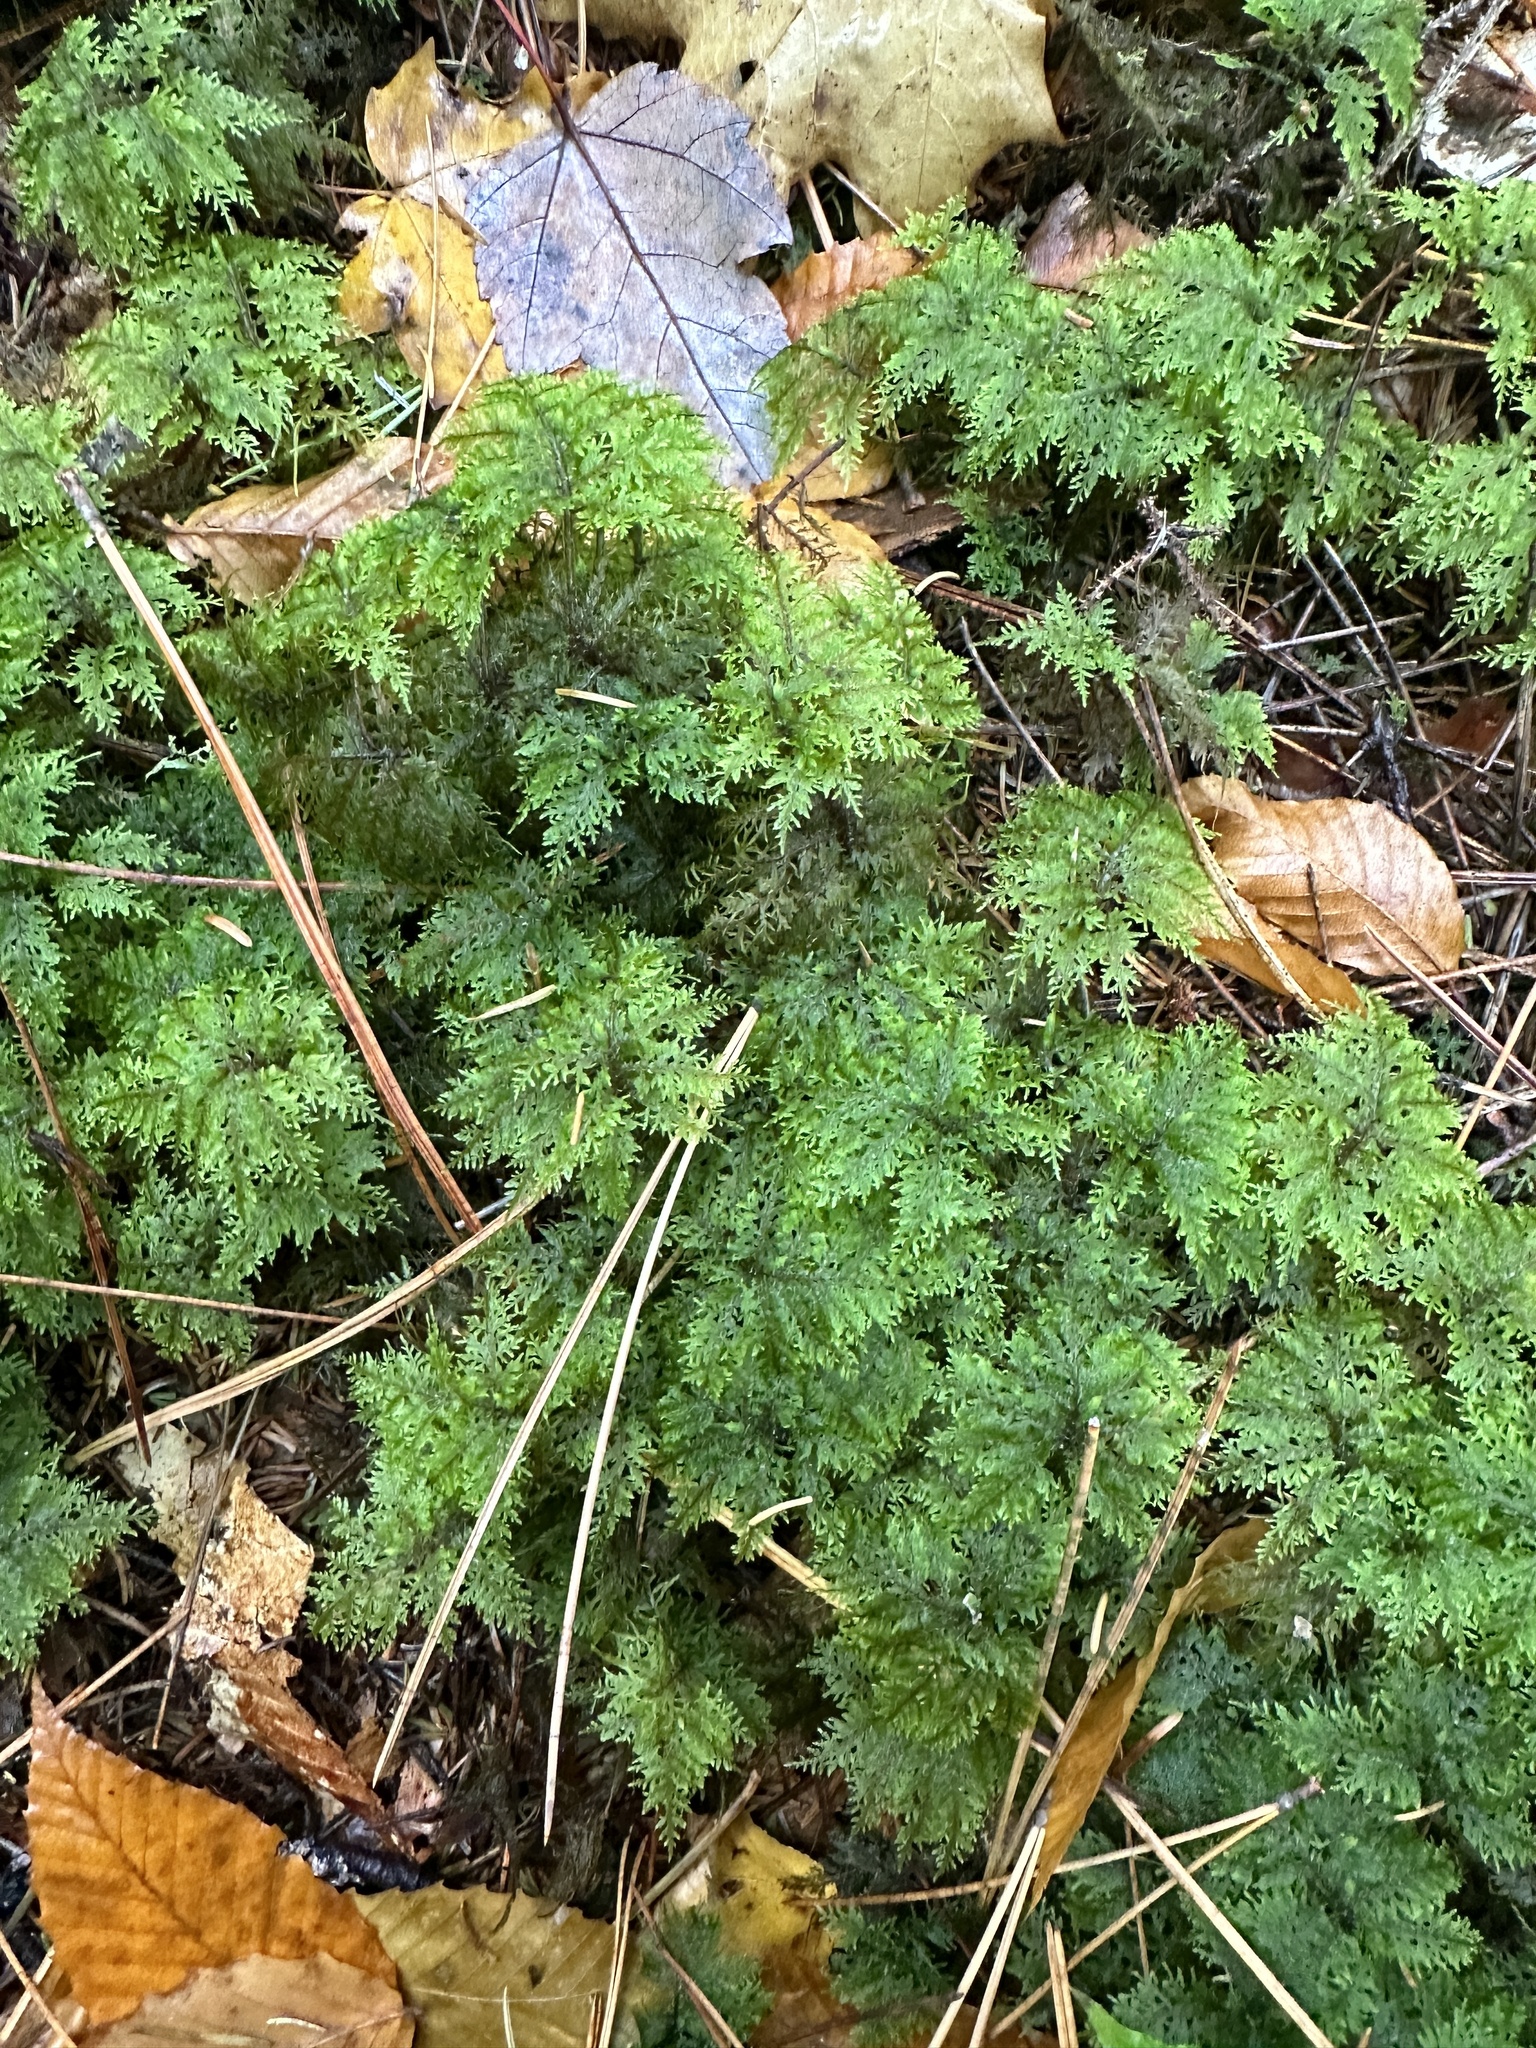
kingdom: Plantae
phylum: Bryophyta
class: Bryopsida
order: Hypnales
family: Hylocomiaceae
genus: Hylocomium
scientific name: Hylocomium splendens
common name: Stairstep moss
